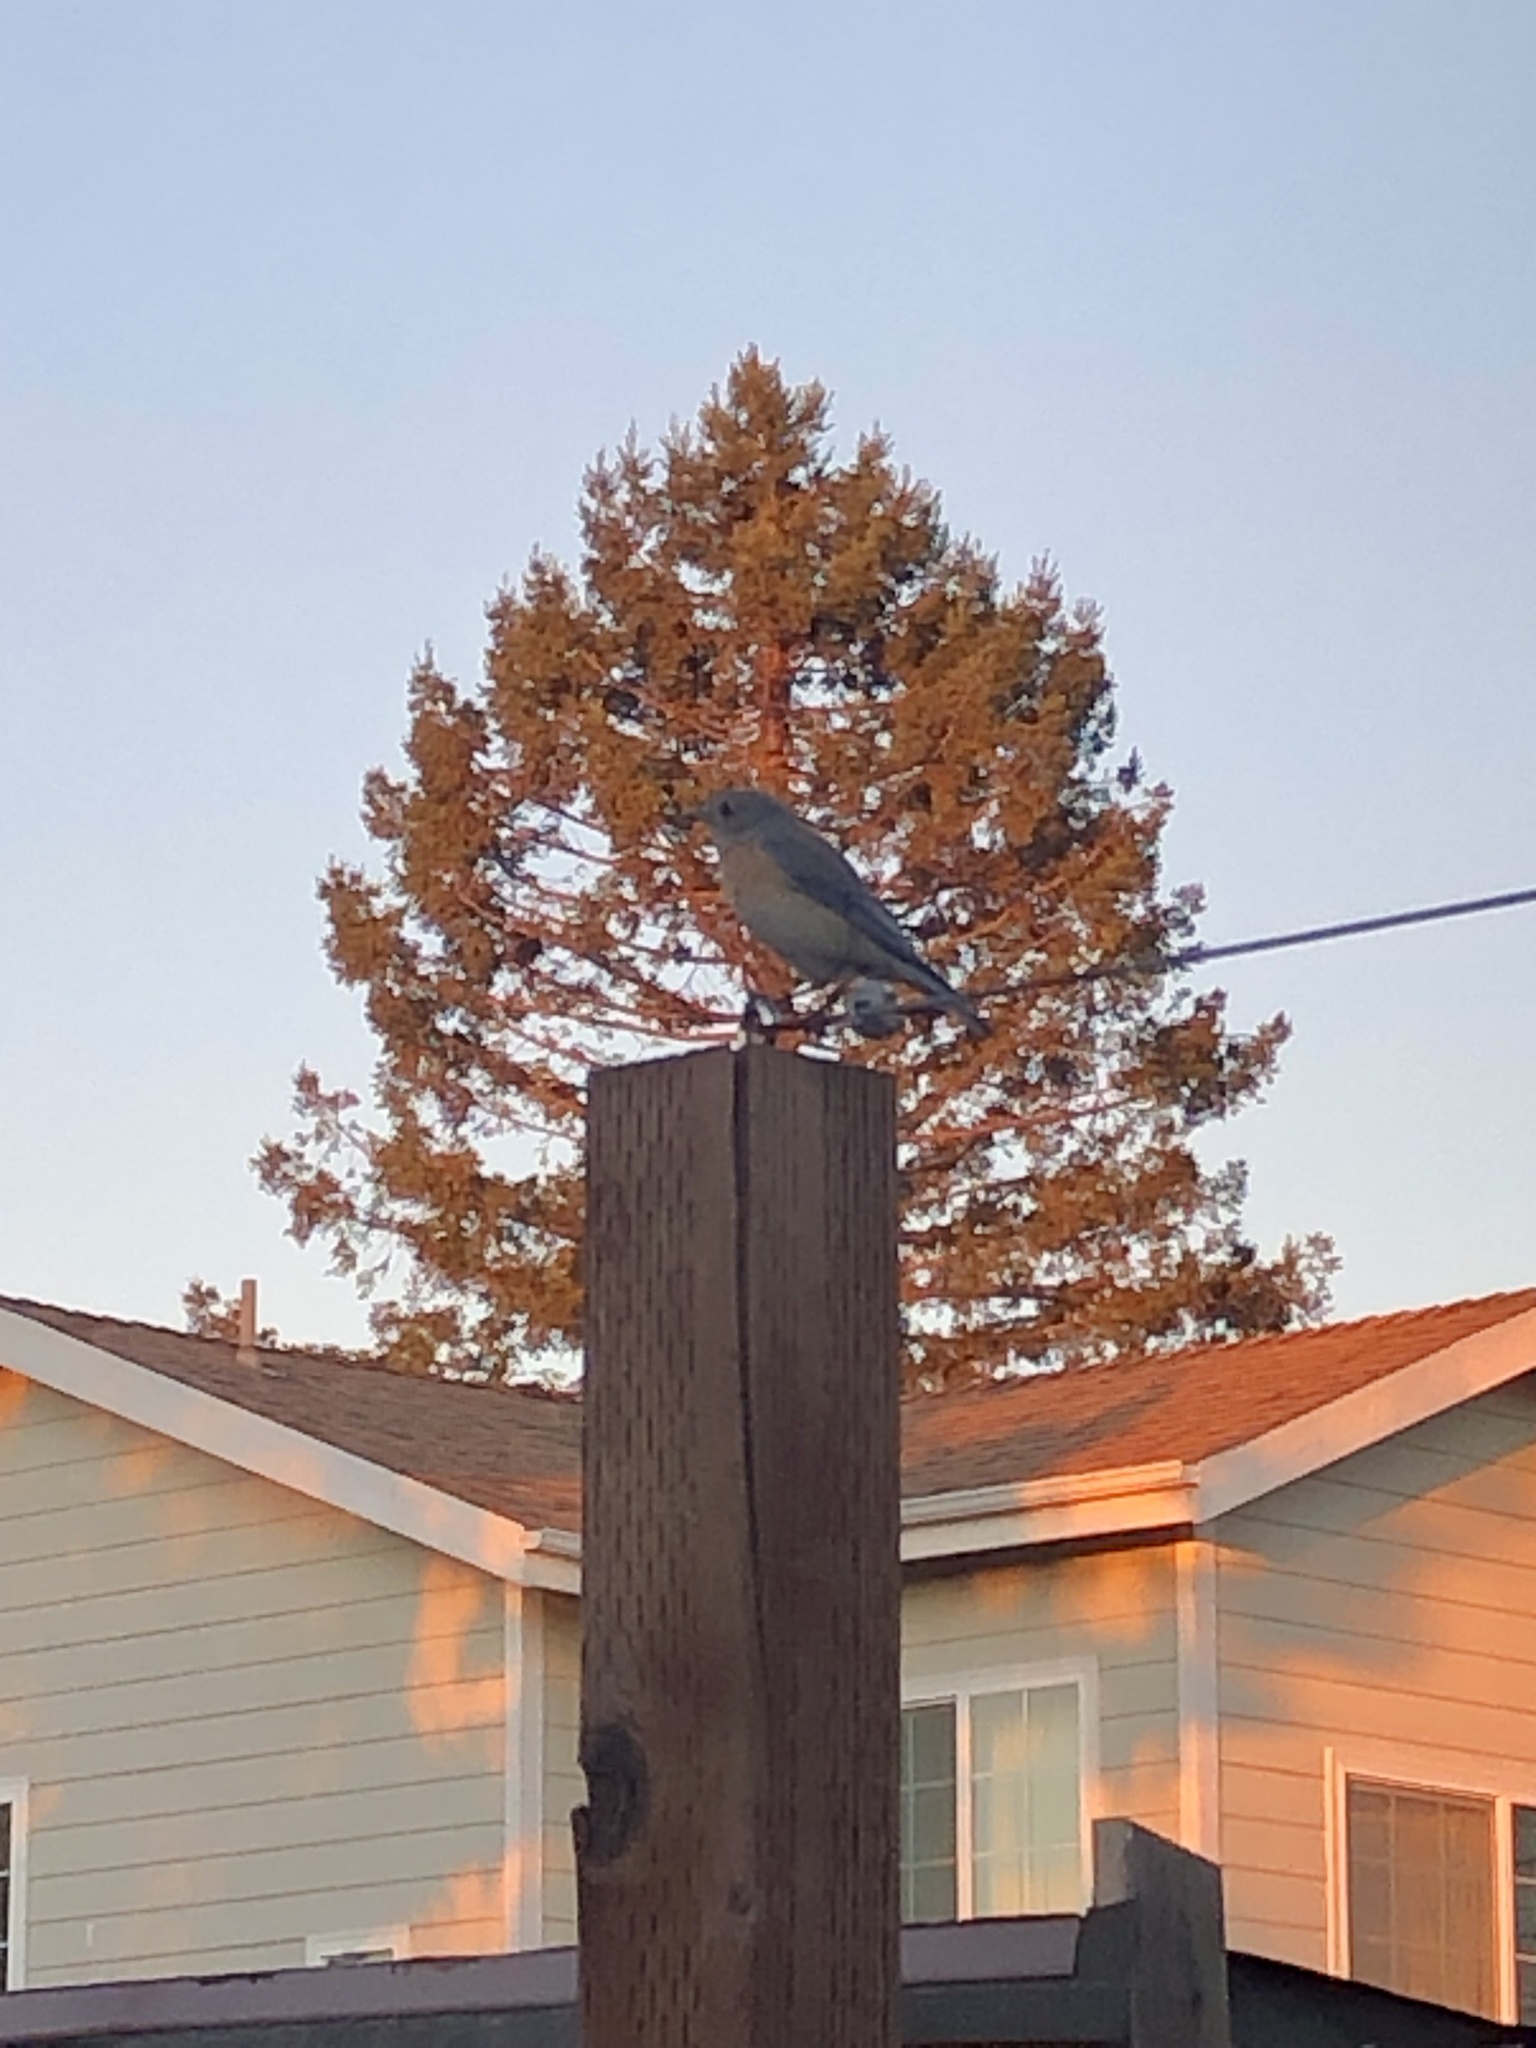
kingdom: Animalia
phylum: Chordata
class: Aves
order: Passeriformes
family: Turdidae
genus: Sialia
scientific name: Sialia mexicana
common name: Western bluebird
